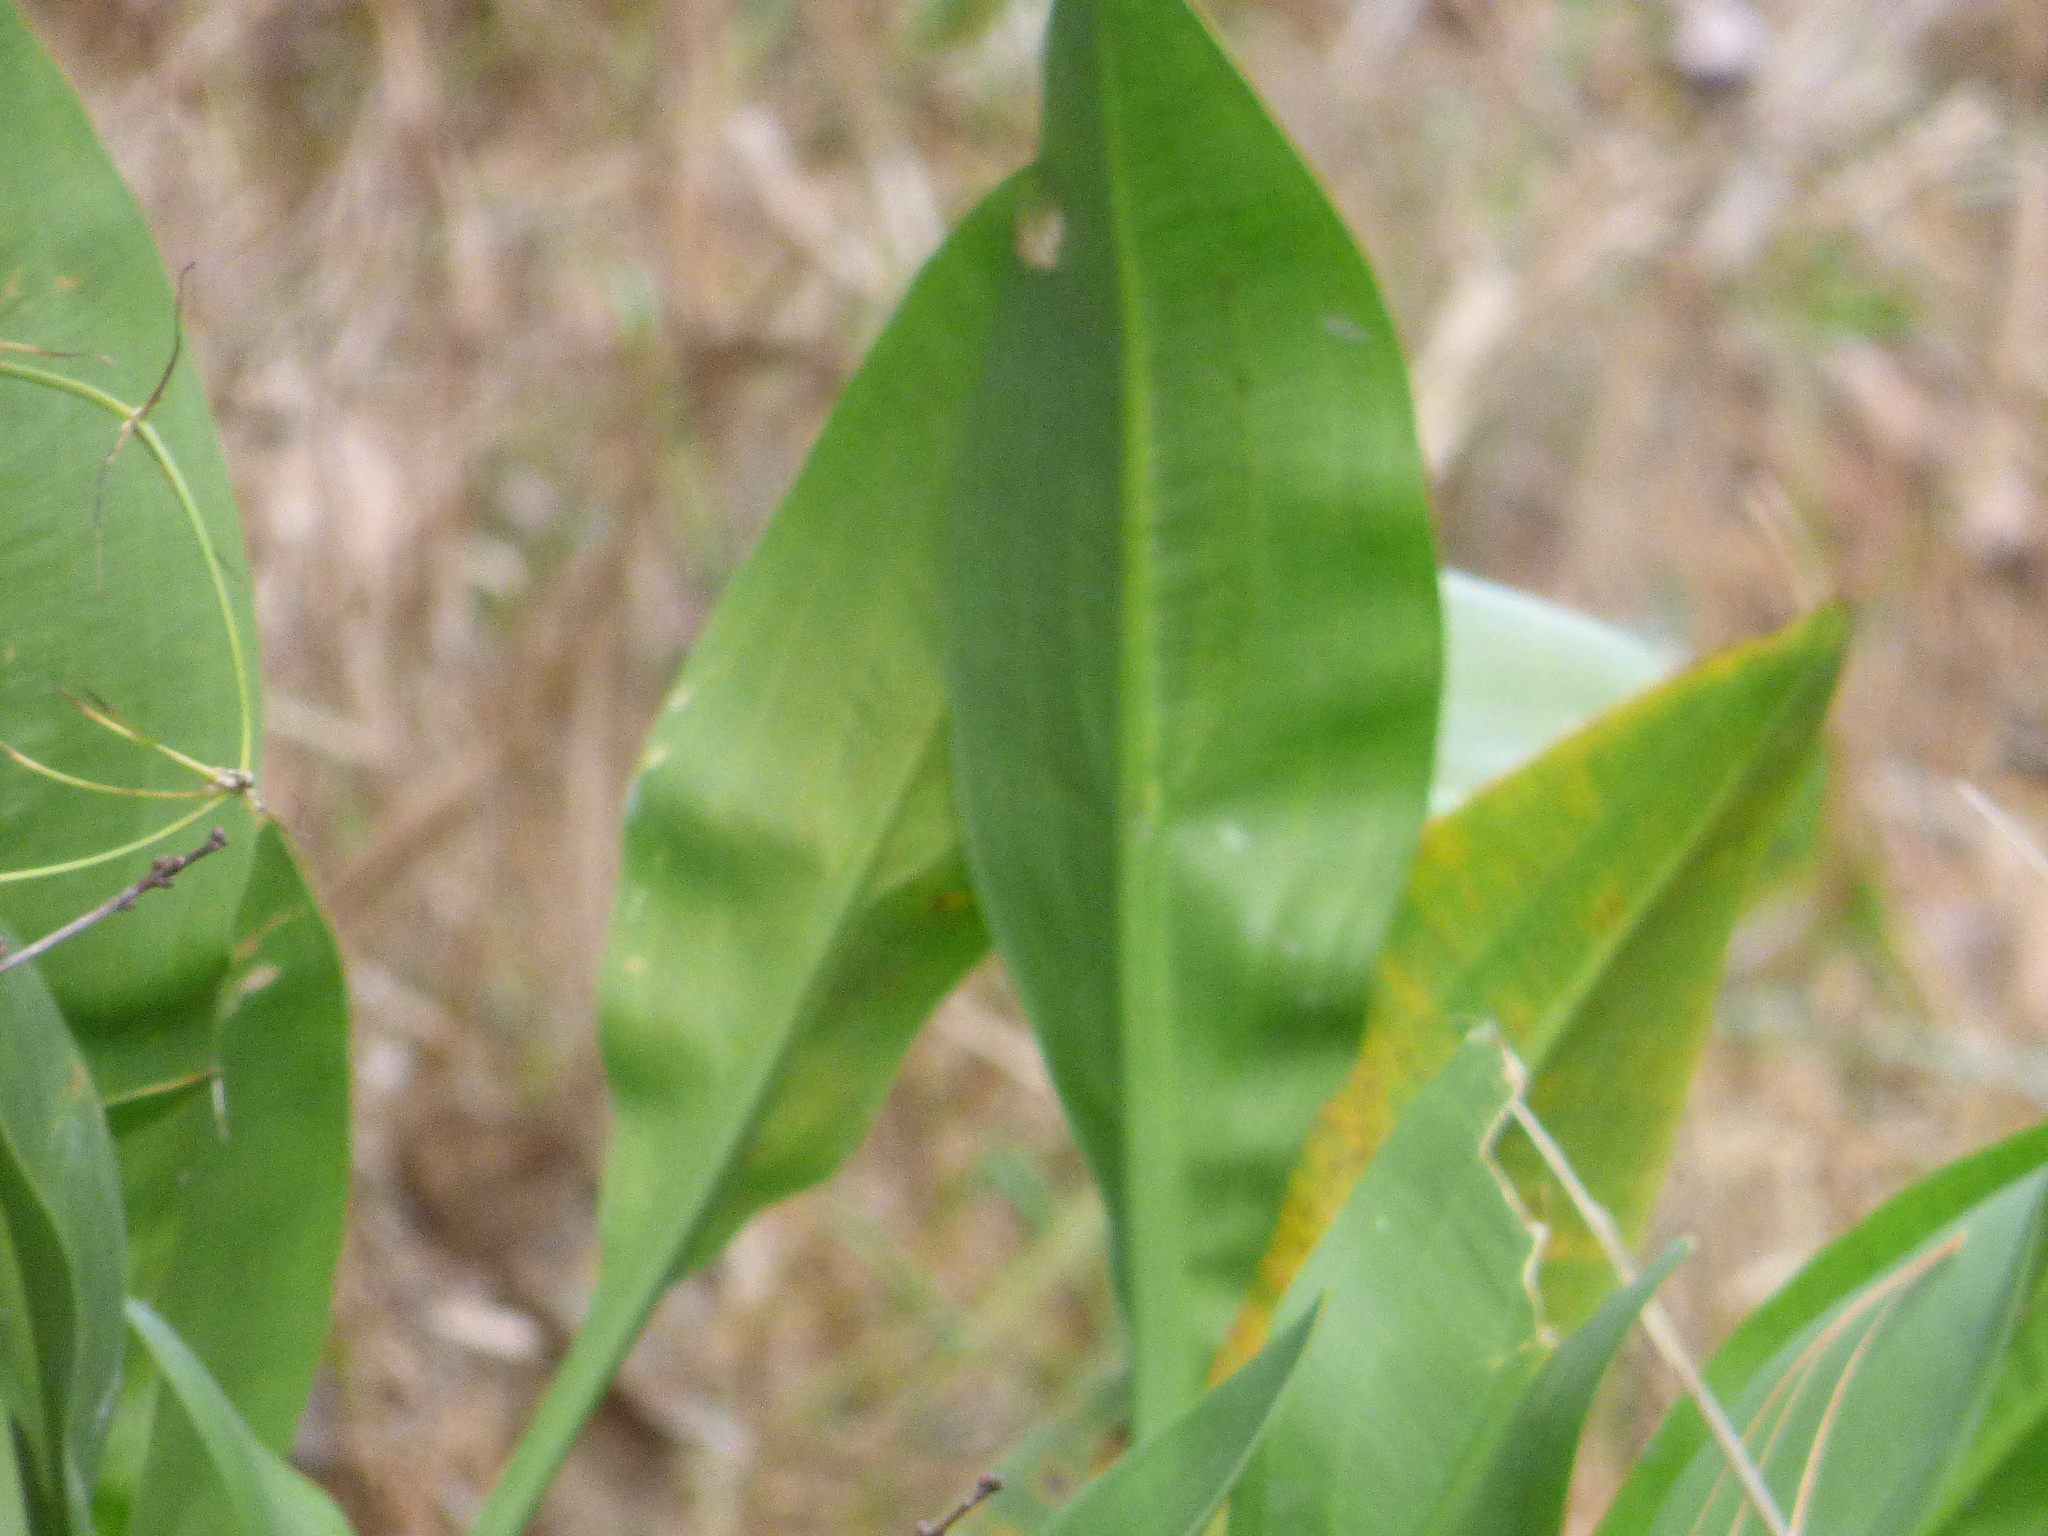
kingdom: Plantae
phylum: Tracheophyta
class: Liliopsida
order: Alismatales
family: Alismataceae
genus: Sagittaria
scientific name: Sagittaria lancifolia
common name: Lance-leaf arrowhead
